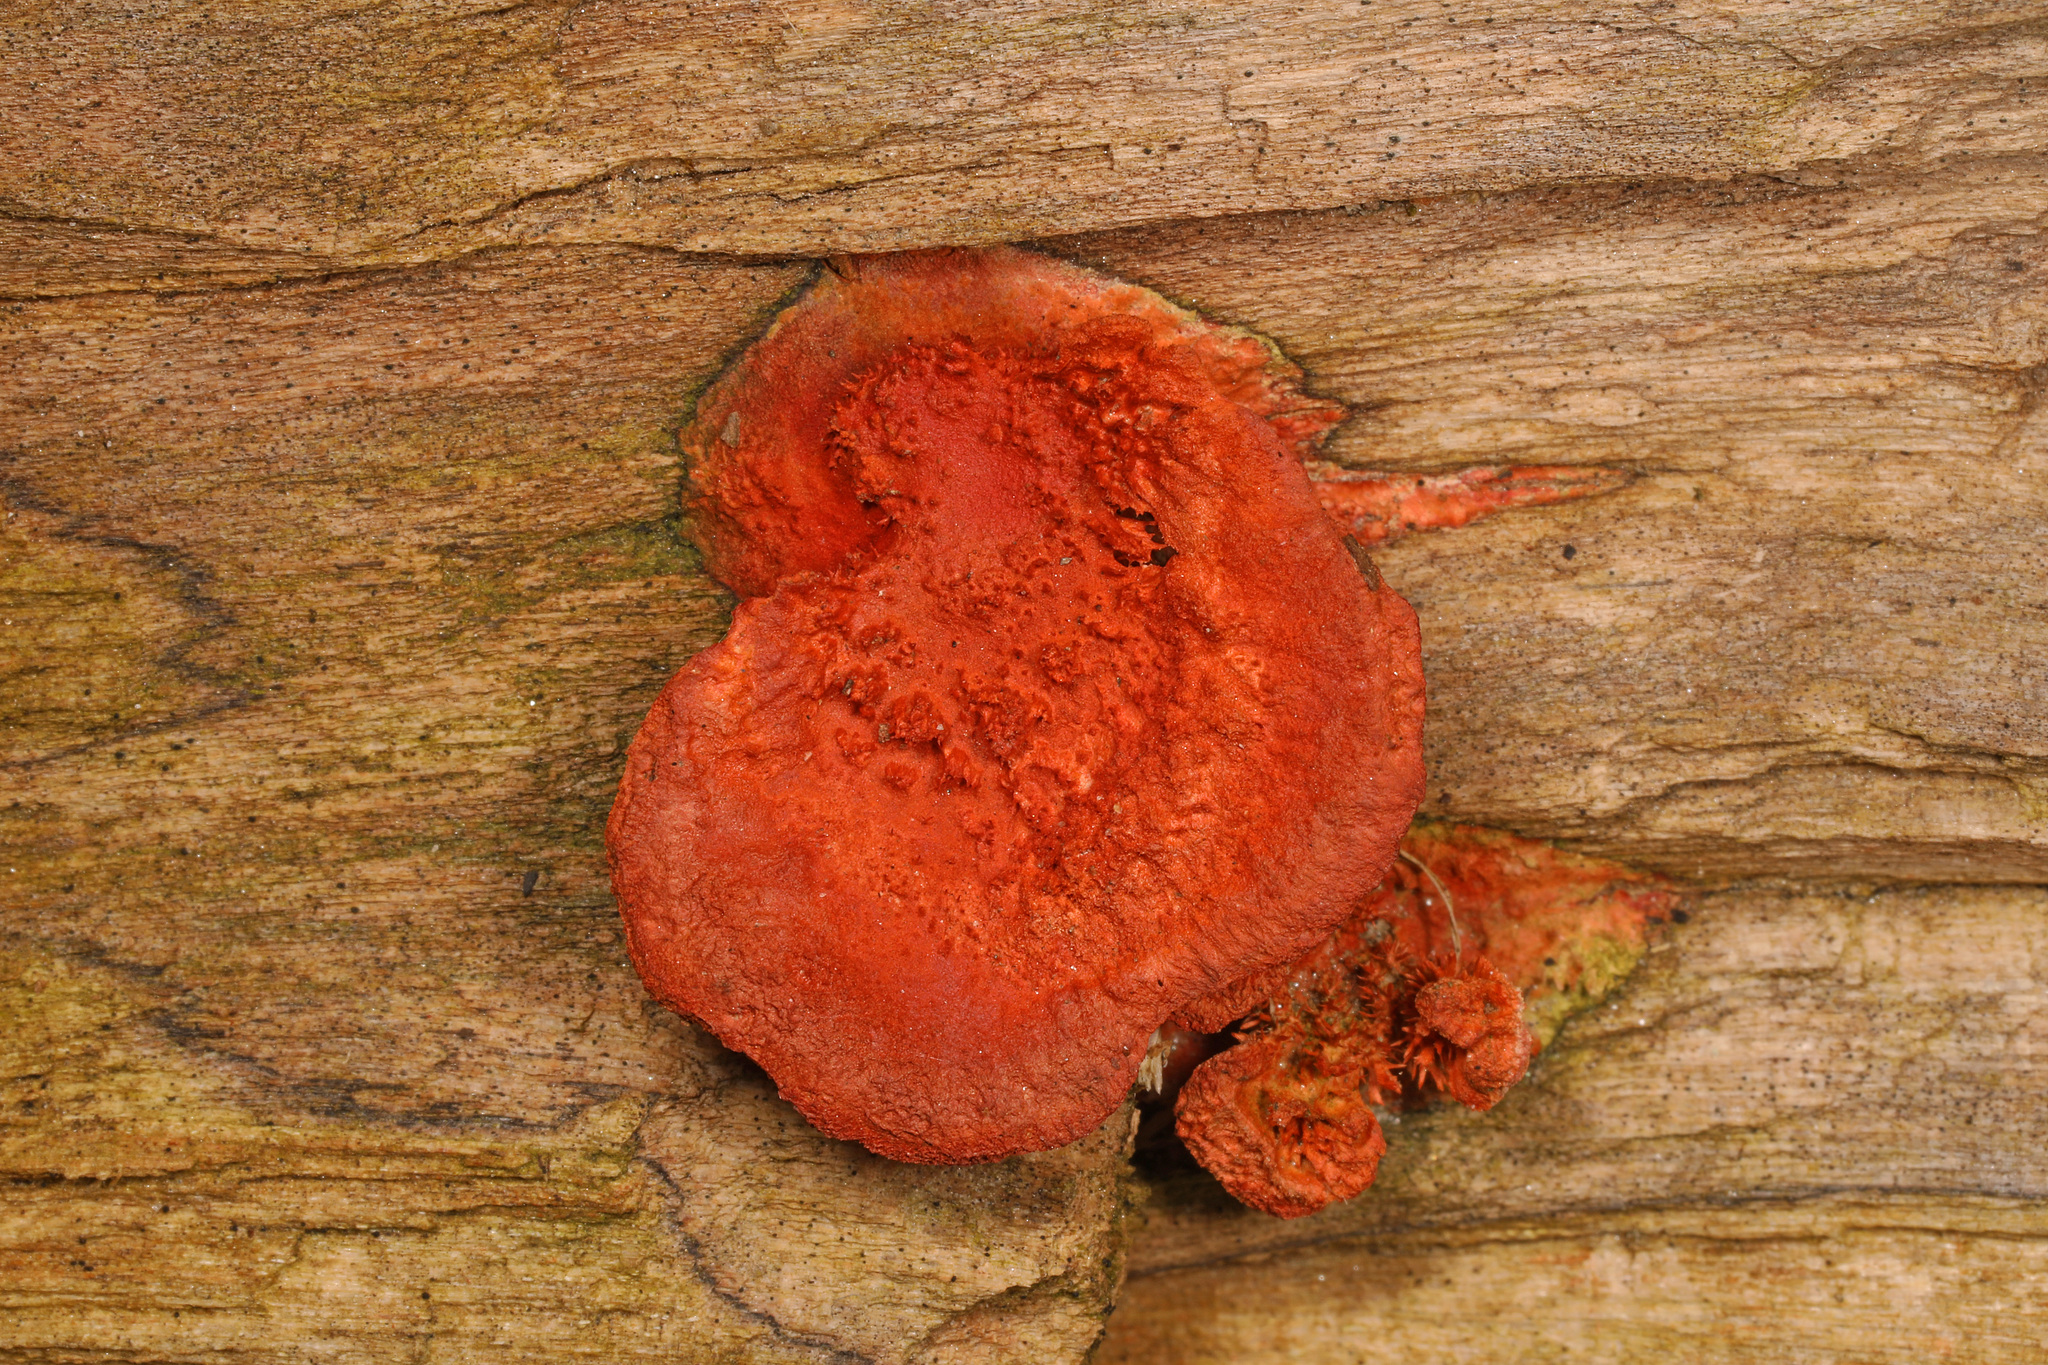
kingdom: Fungi
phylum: Basidiomycota
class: Agaricomycetes
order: Polyporales
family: Polyporaceae
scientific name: Polyporaceae
